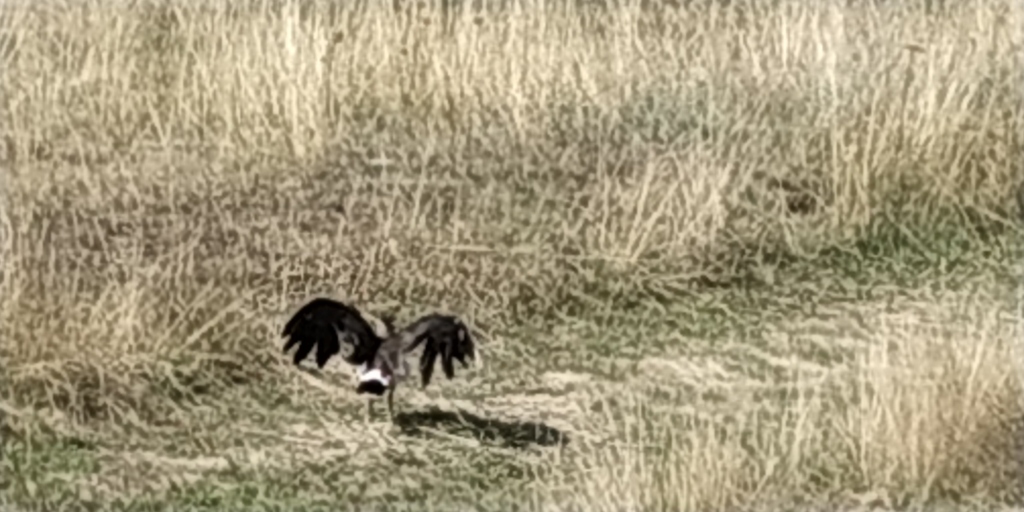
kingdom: Animalia
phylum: Chordata
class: Aves
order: Charadriiformes
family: Charadriidae
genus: Vanellus
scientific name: Vanellus vanellus
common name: Northern lapwing
